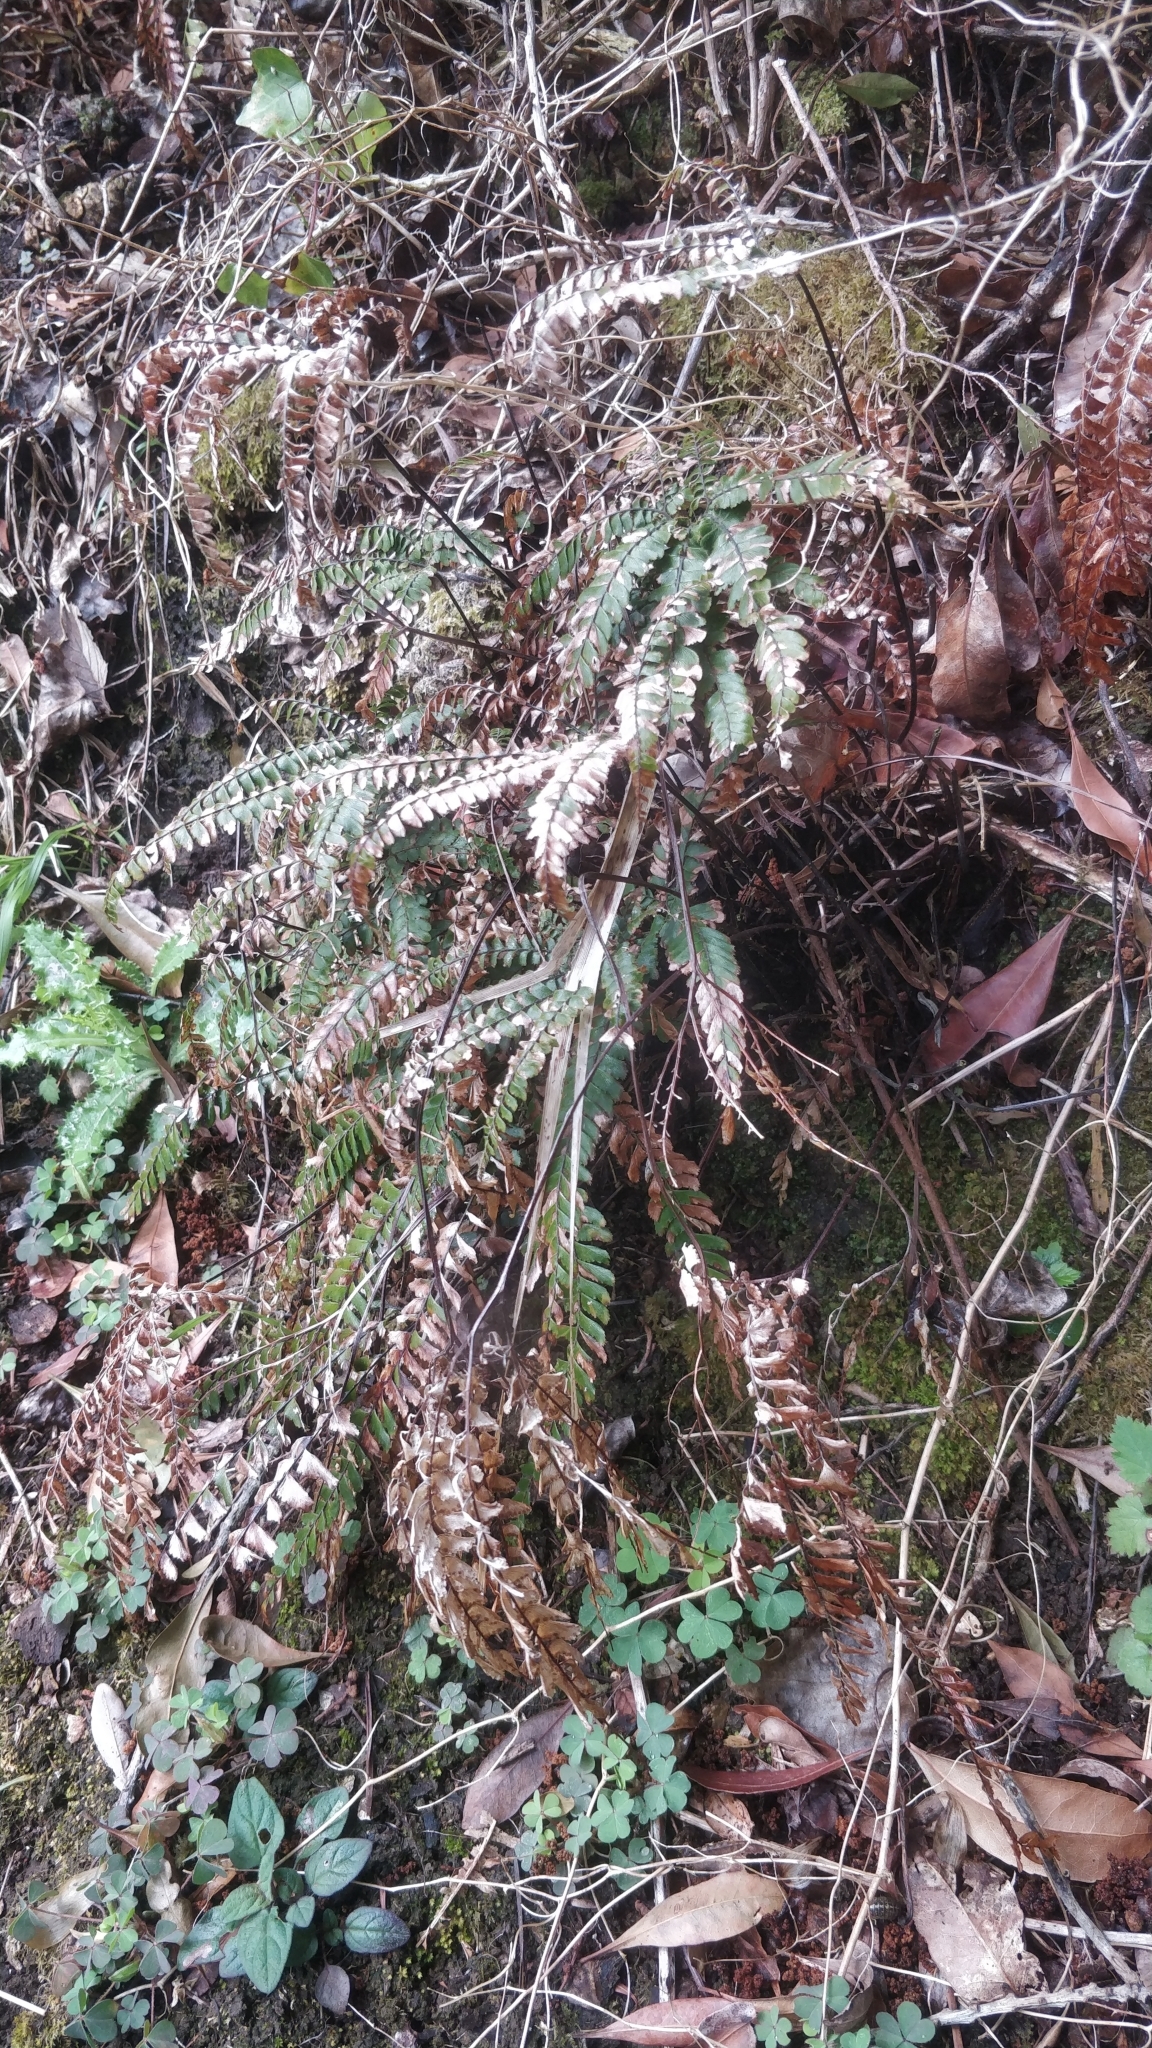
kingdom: Plantae
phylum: Tracheophyta
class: Polypodiopsida
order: Polypodiales
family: Pteridaceae
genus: Adiantum
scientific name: Adiantum hispidulum
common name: Rough maidenhair
